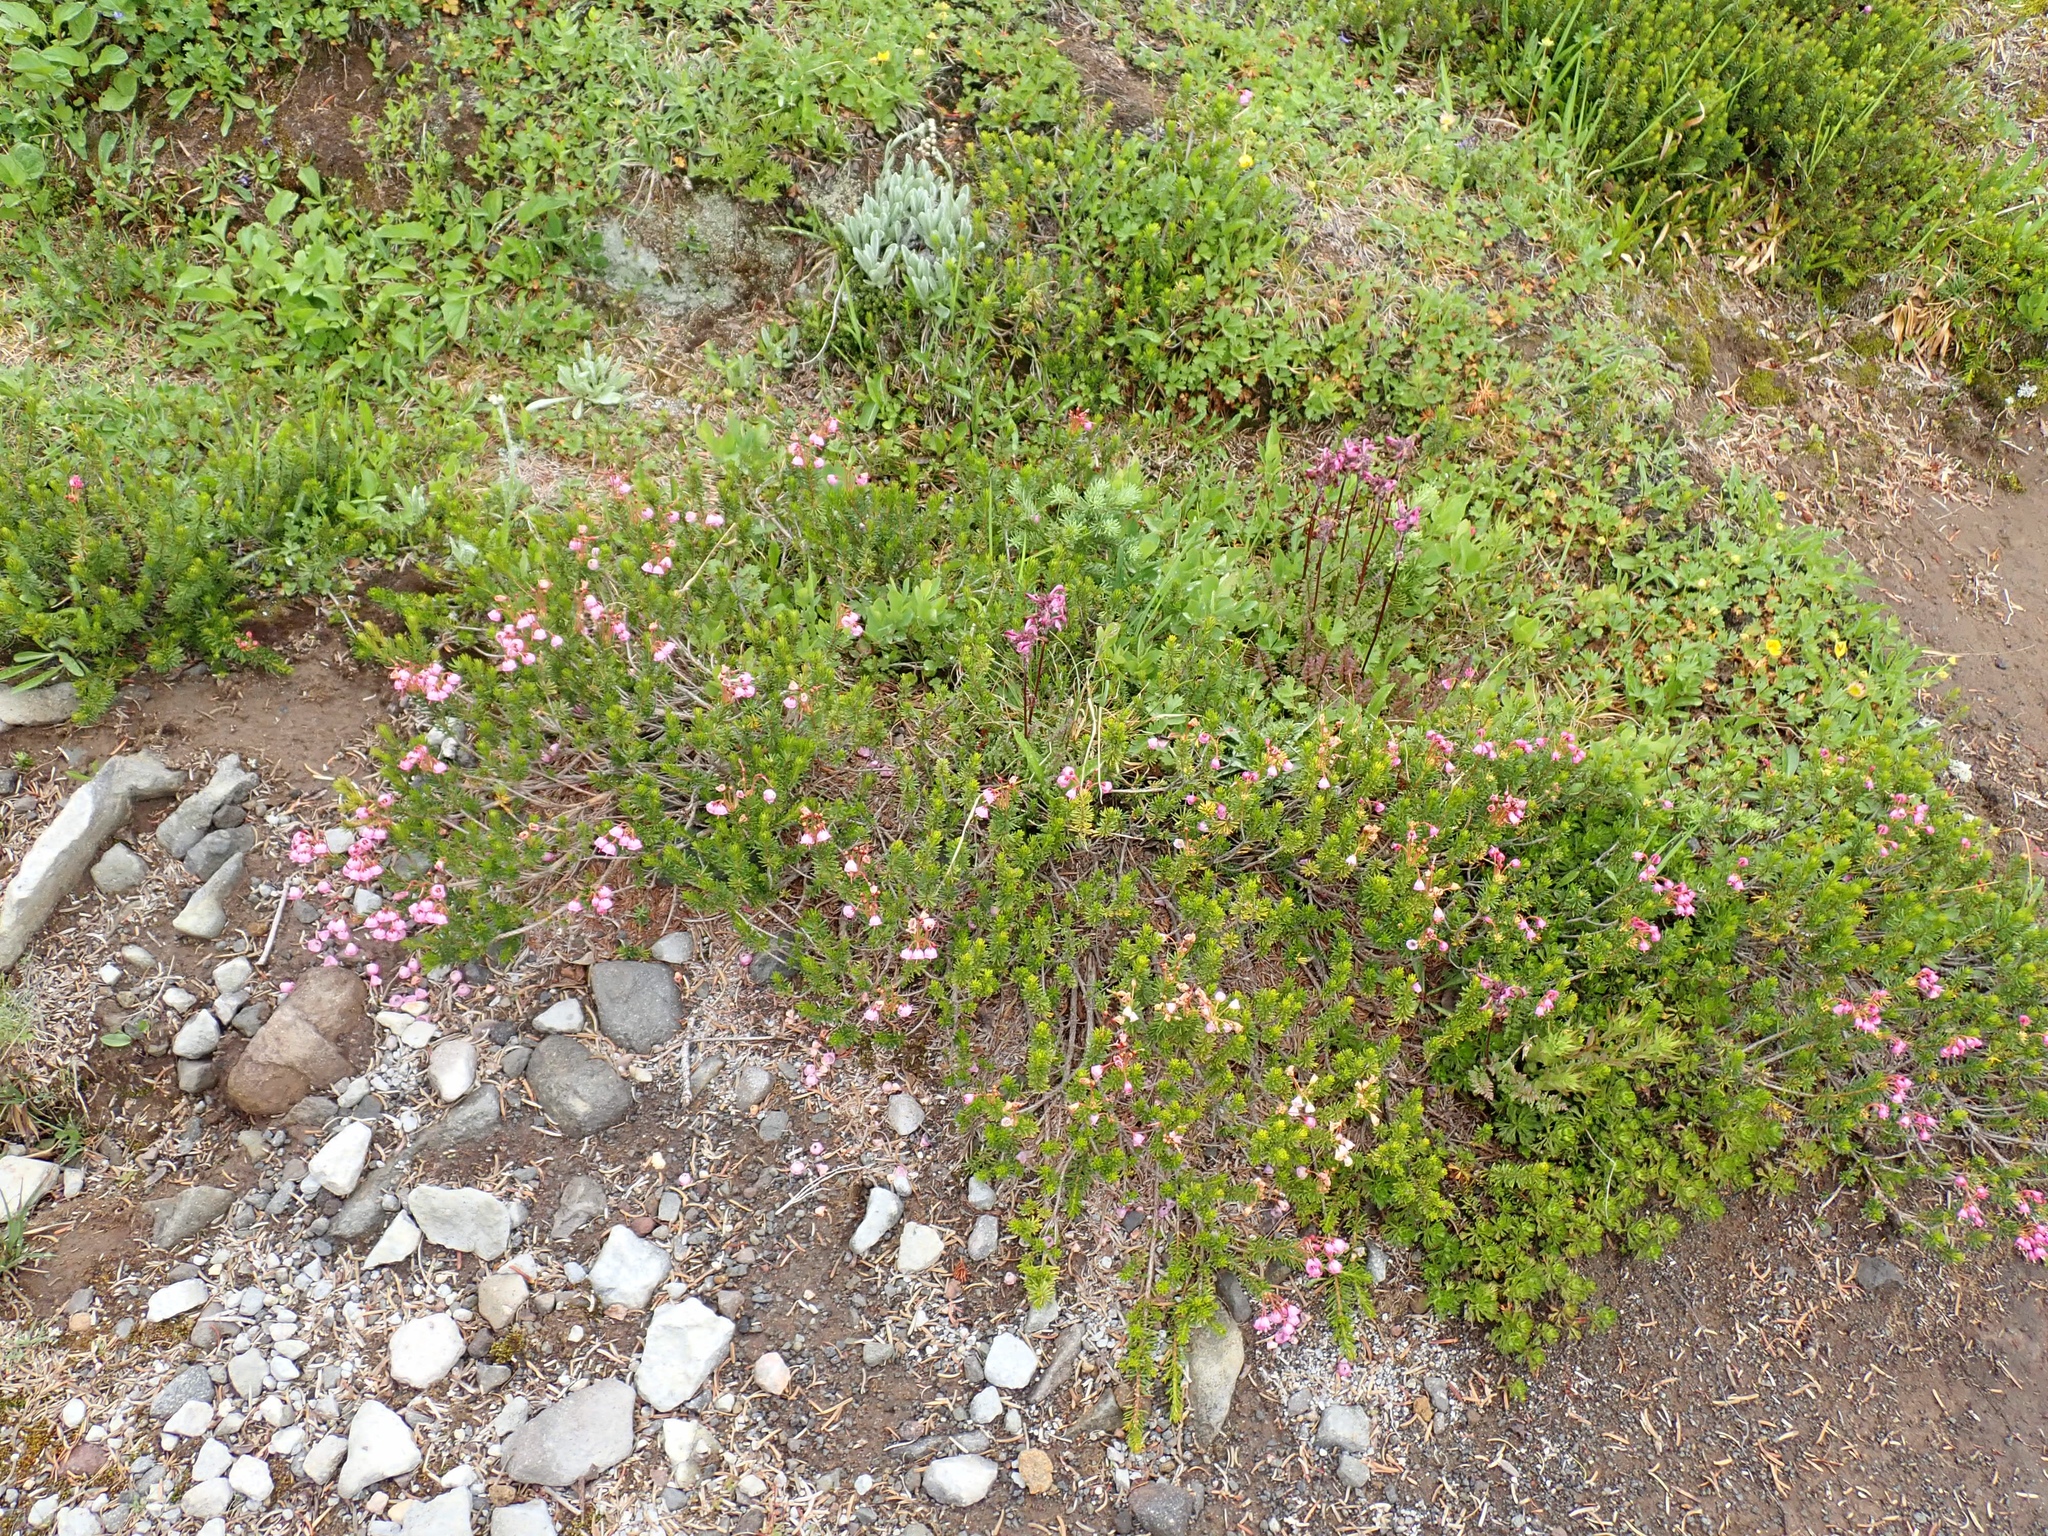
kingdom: Plantae
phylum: Tracheophyta
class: Magnoliopsida
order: Ericales
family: Ericaceae
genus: Phyllodoce
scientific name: Phyllodoce empetriformis
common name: Pink mountain heather
